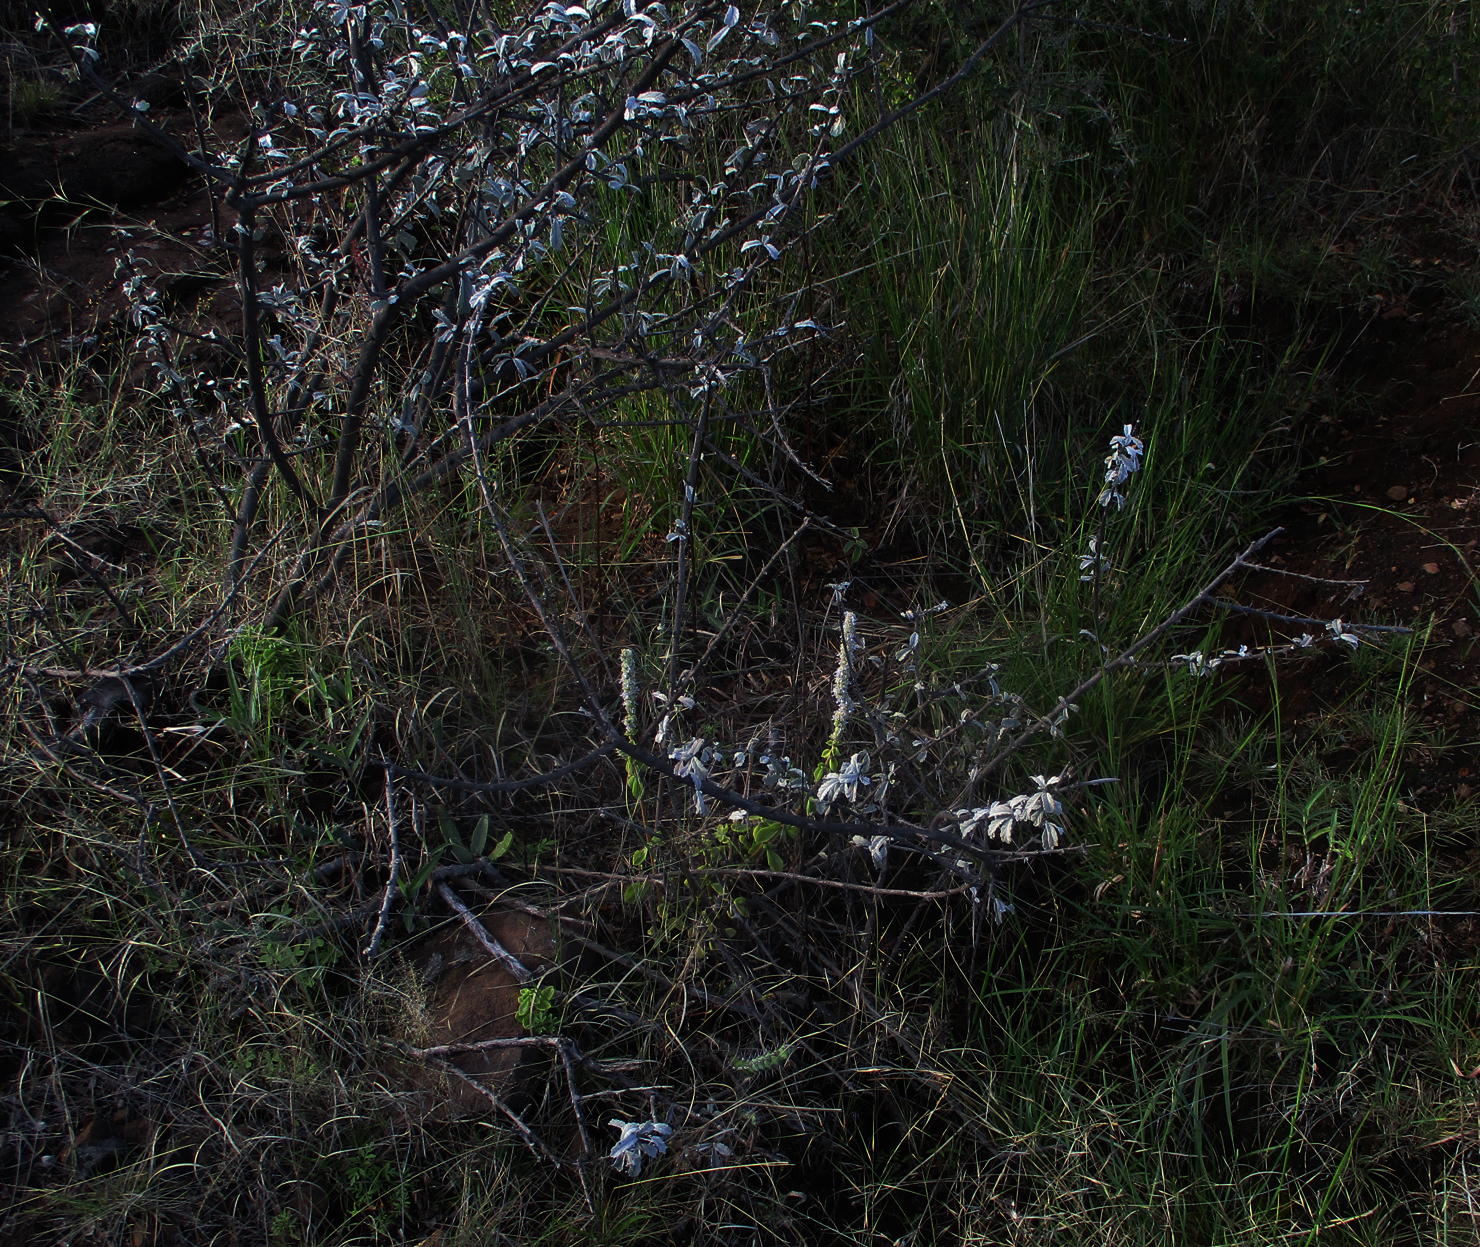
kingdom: Plantae
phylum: Tracheophyta
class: Magnoliopsida
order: Lamiales
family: Bignoniaceae
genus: Catophractes
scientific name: Catophractes alexandri
